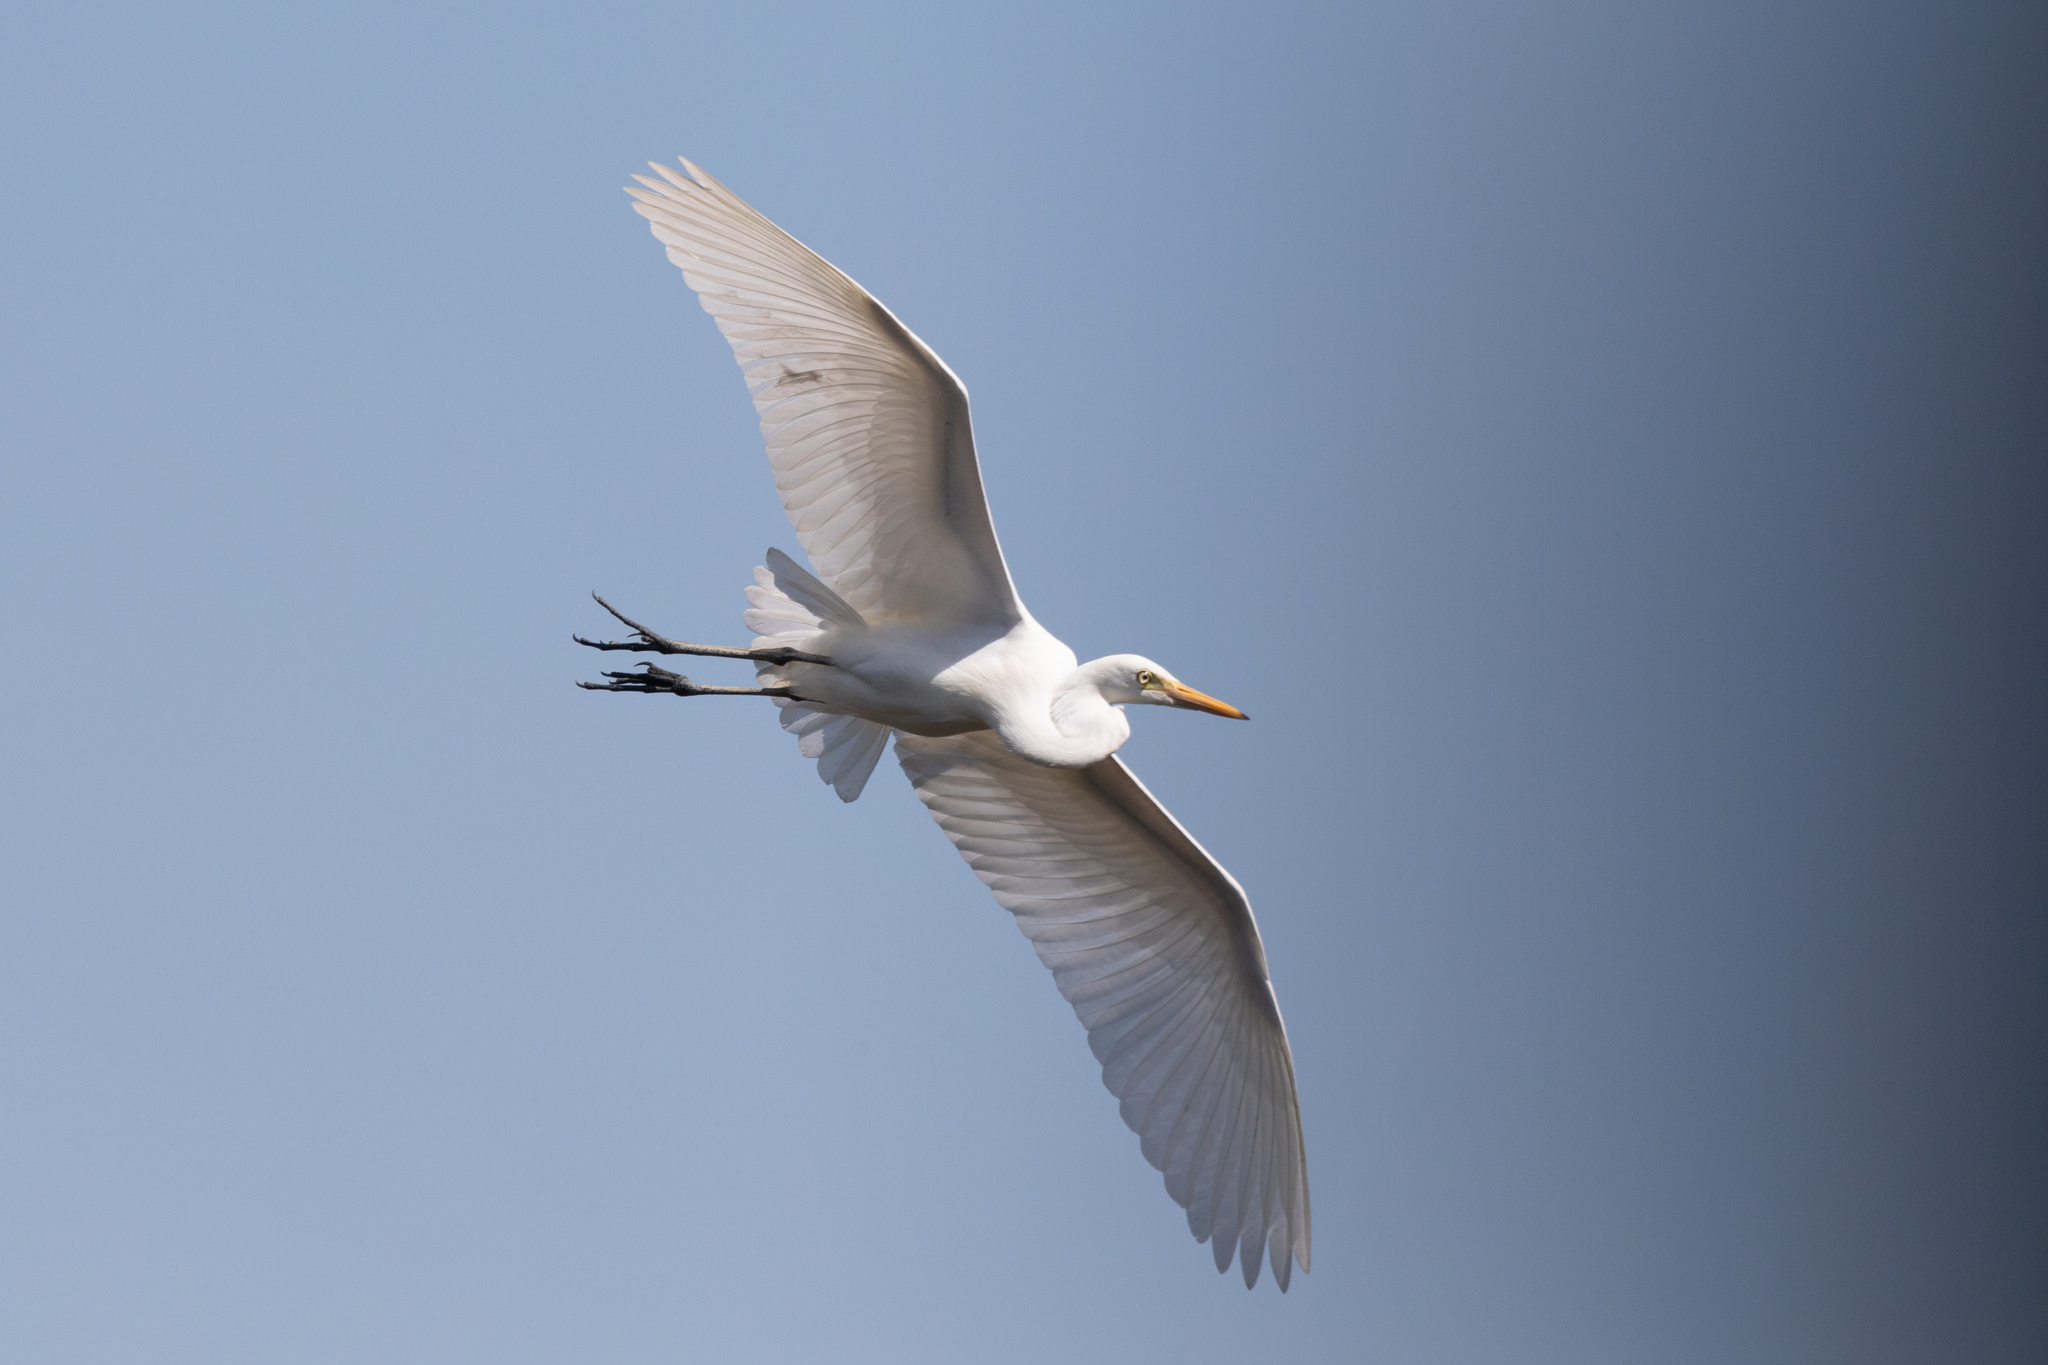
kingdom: Animalia
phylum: Chordata
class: Aves
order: Pelecaniformes
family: Ardeidae
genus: Egretta
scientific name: Egretta intermedia
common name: Intermediate egret
